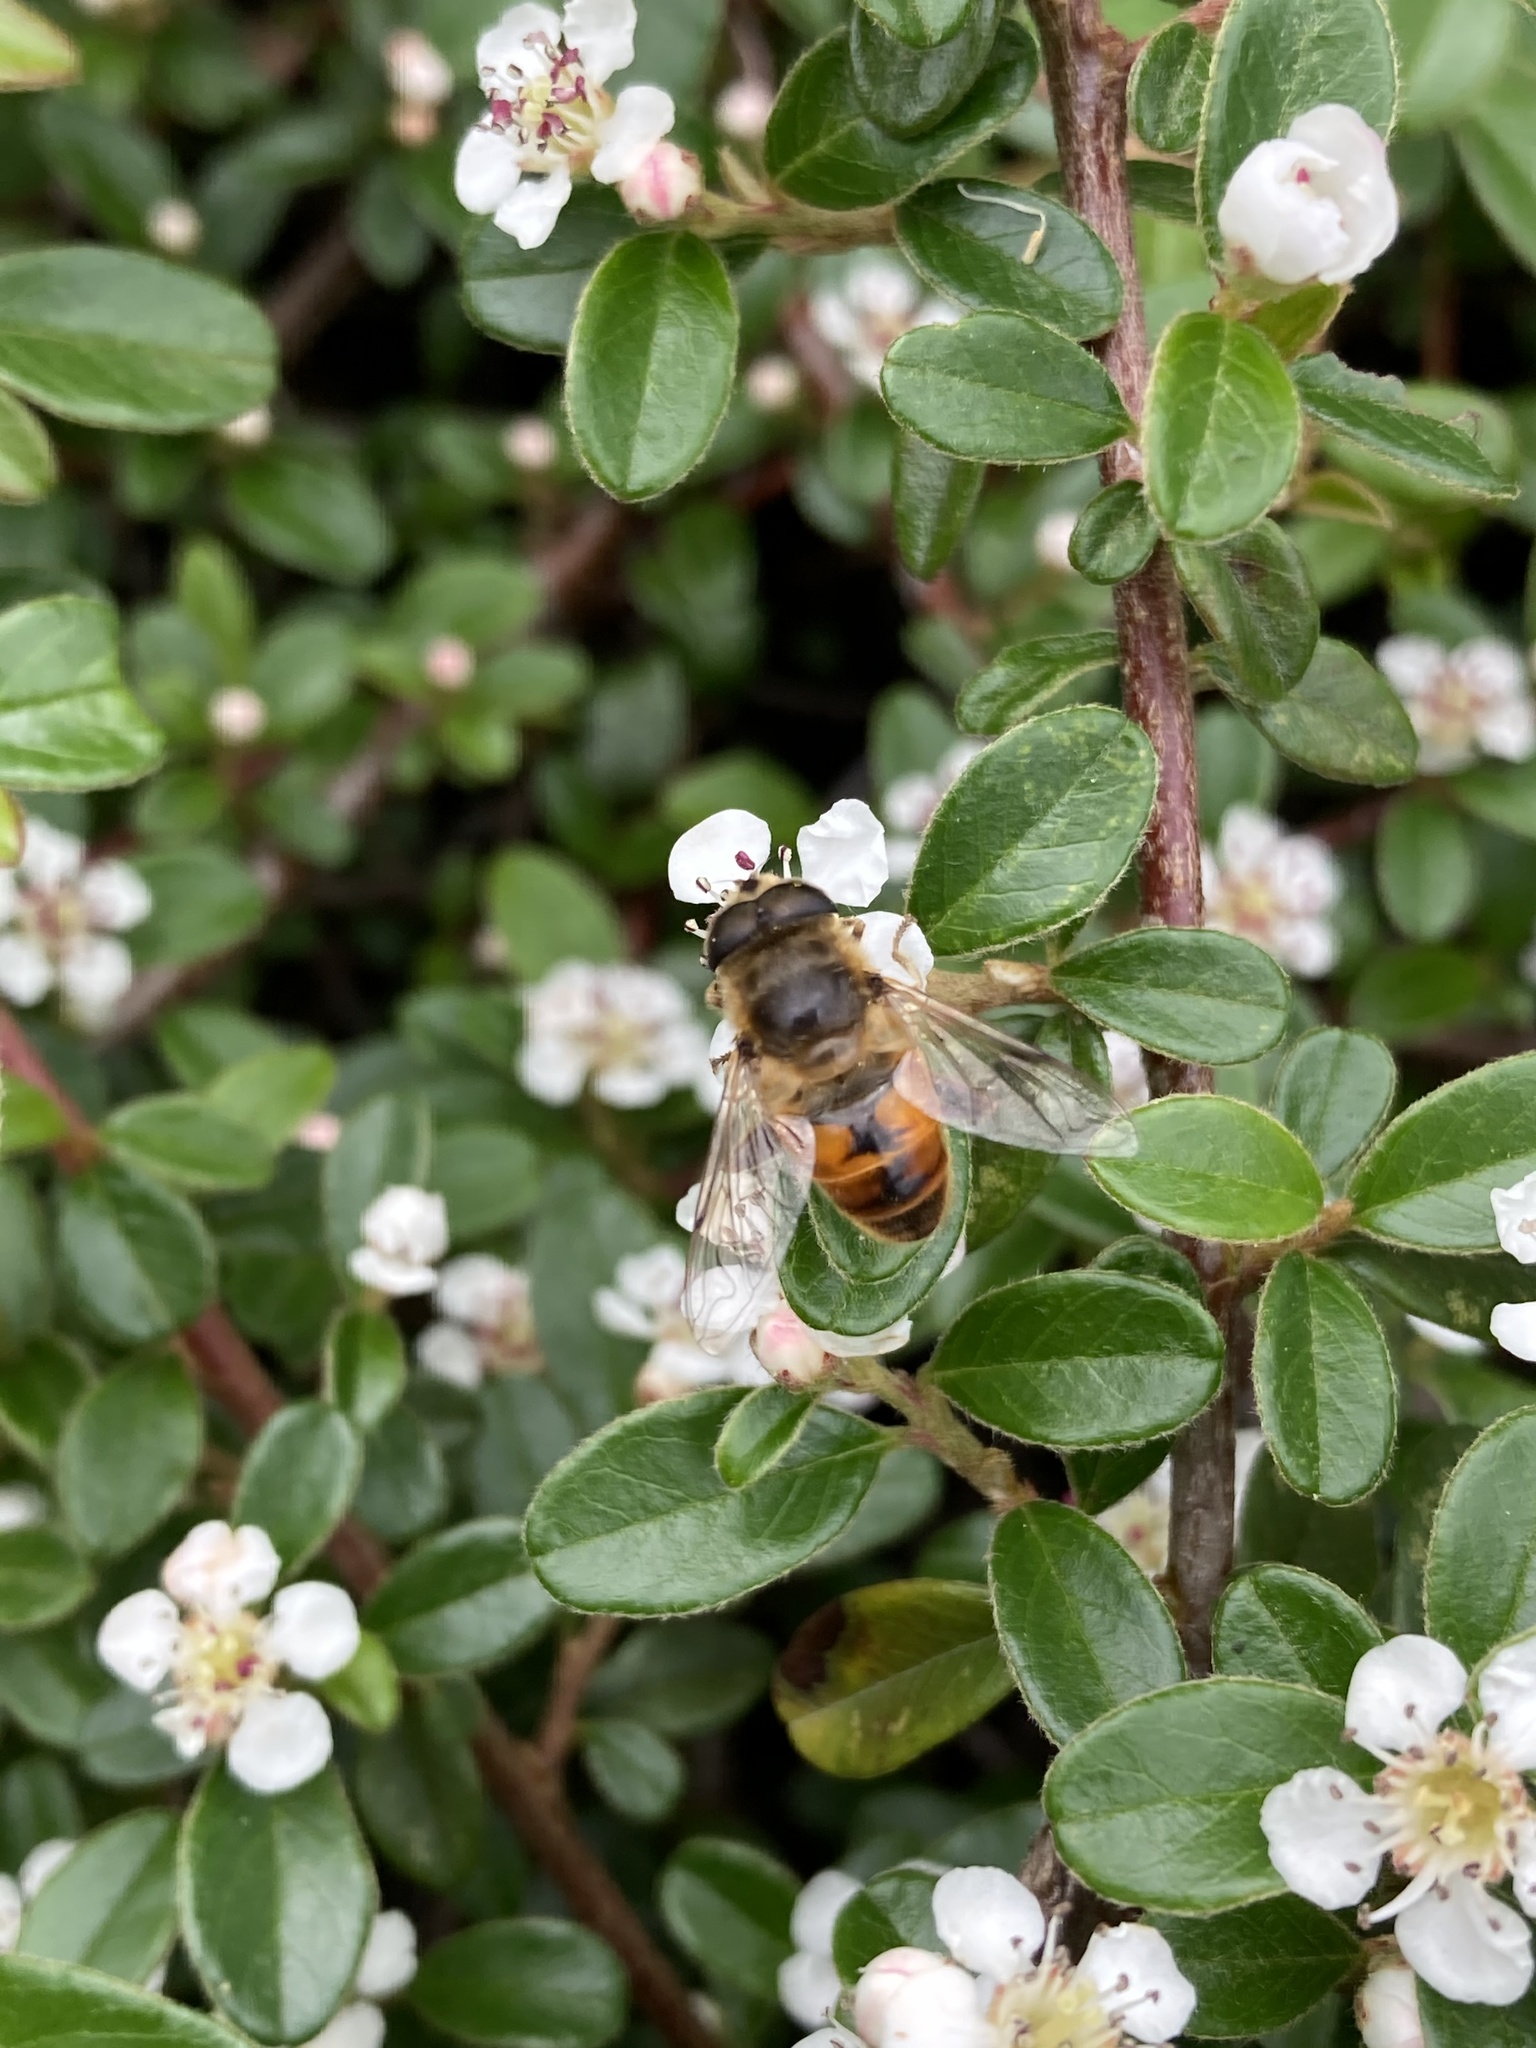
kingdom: Animalia
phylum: Arthropoda
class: Insecta
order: Diptera
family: Syrphidae
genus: Eristalis
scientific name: Eristalis tenax
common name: Drone fly
